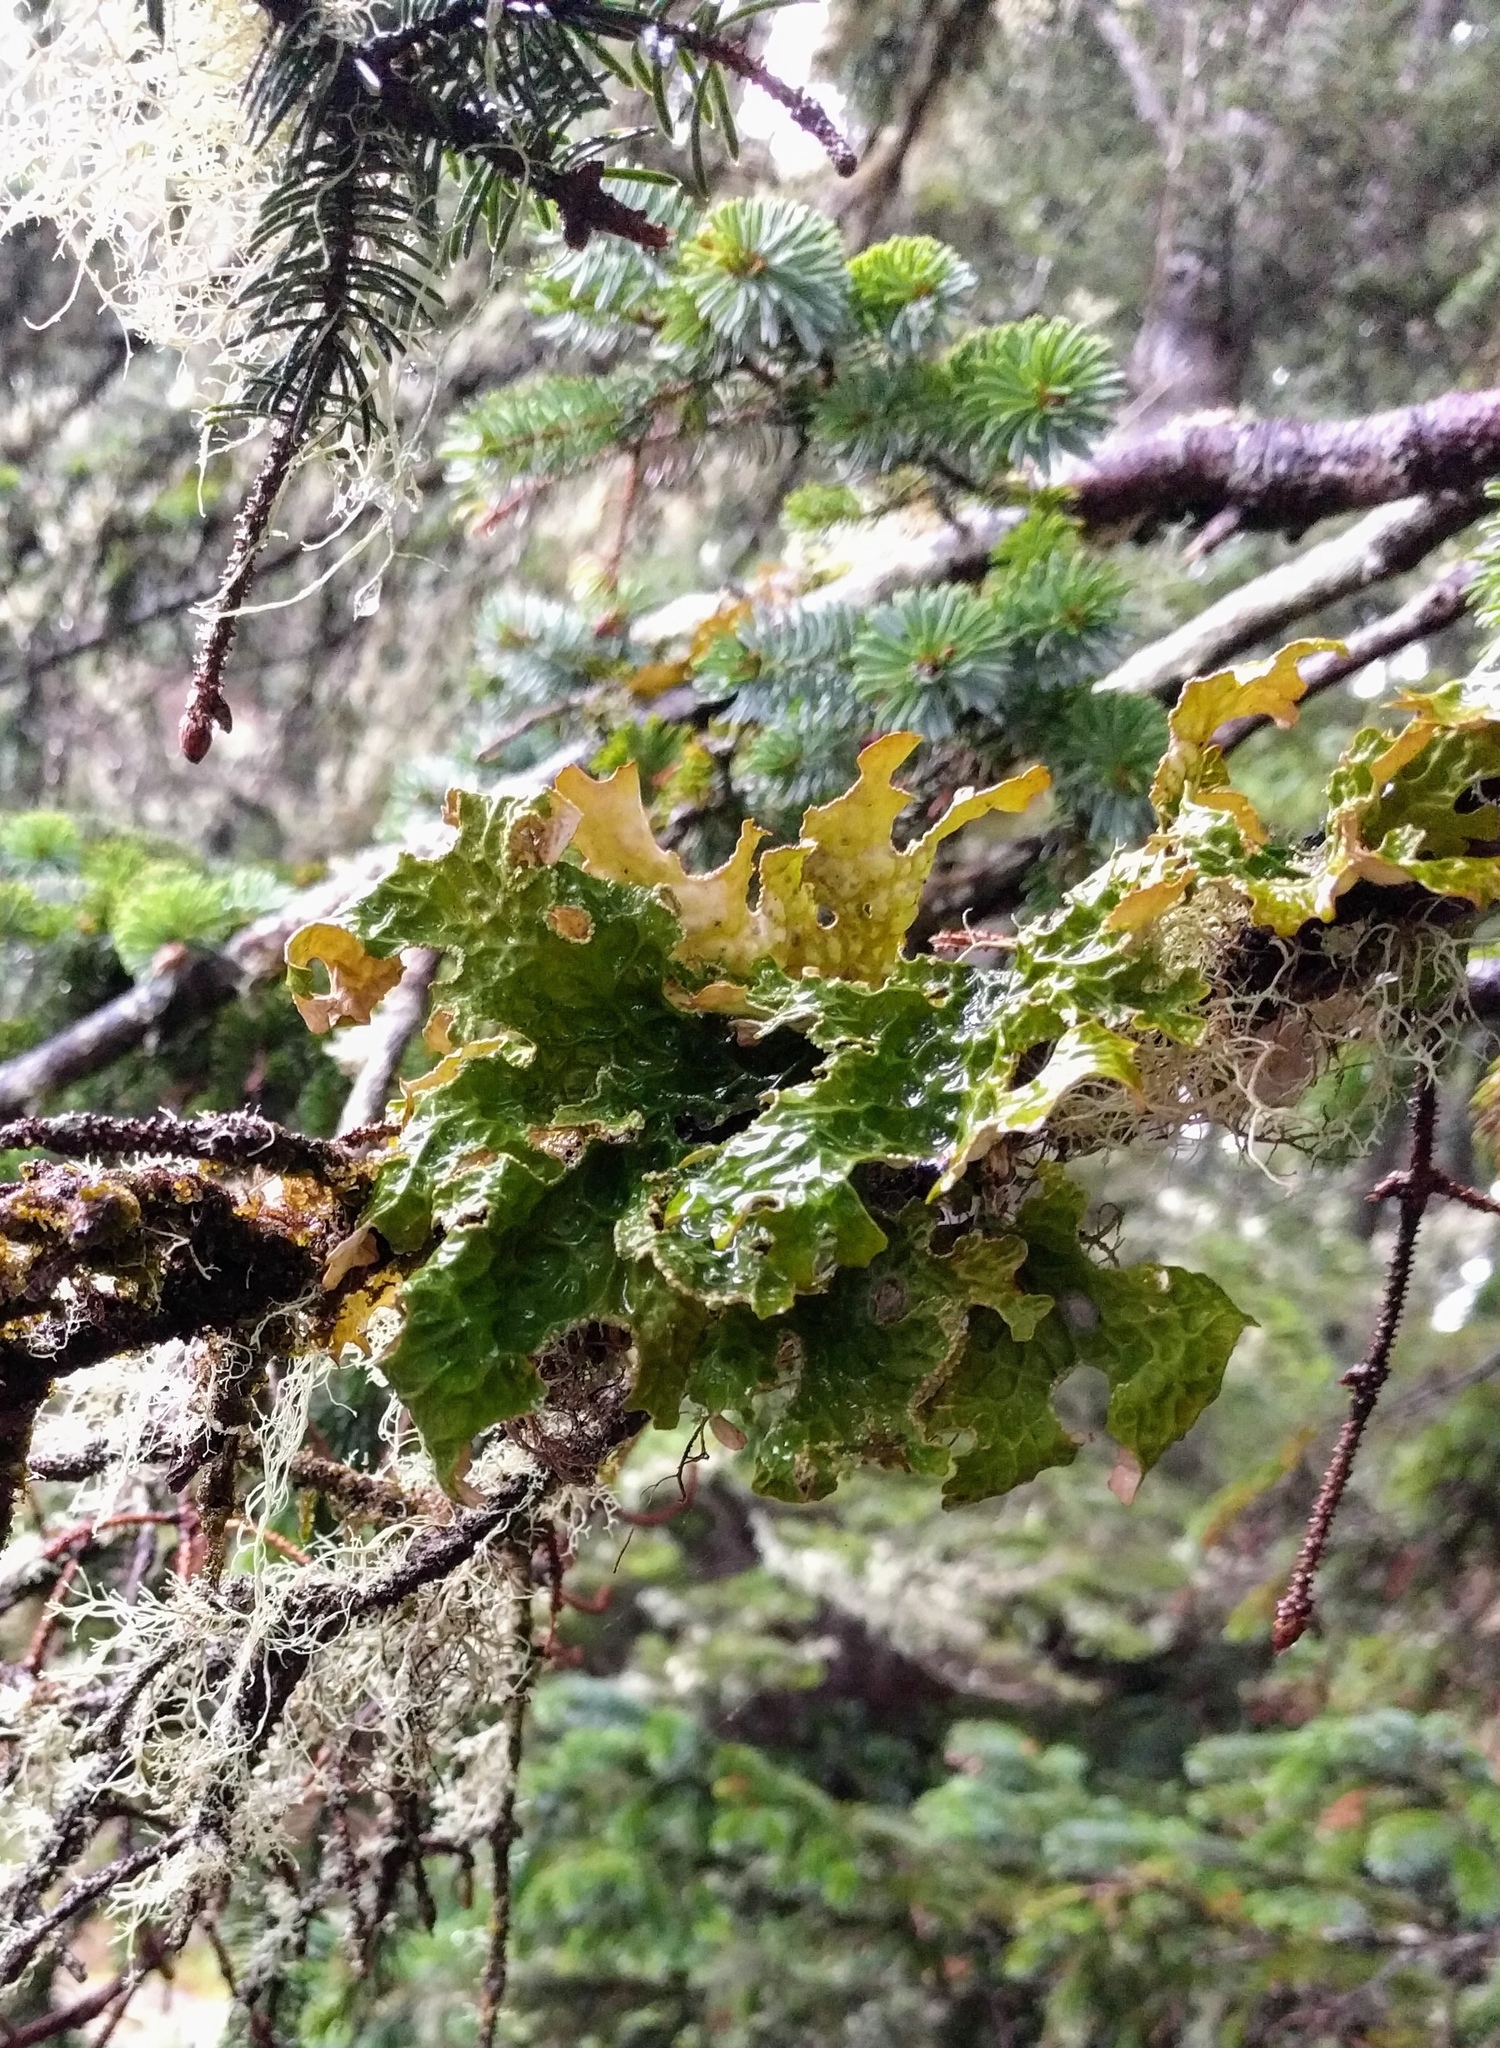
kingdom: Fungi
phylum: Ascomycota
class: Lecanoromycetes
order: Peltigerales
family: Lobariaceae
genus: Lobaria
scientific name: Lobaria pulmonaria
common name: Lungwort
